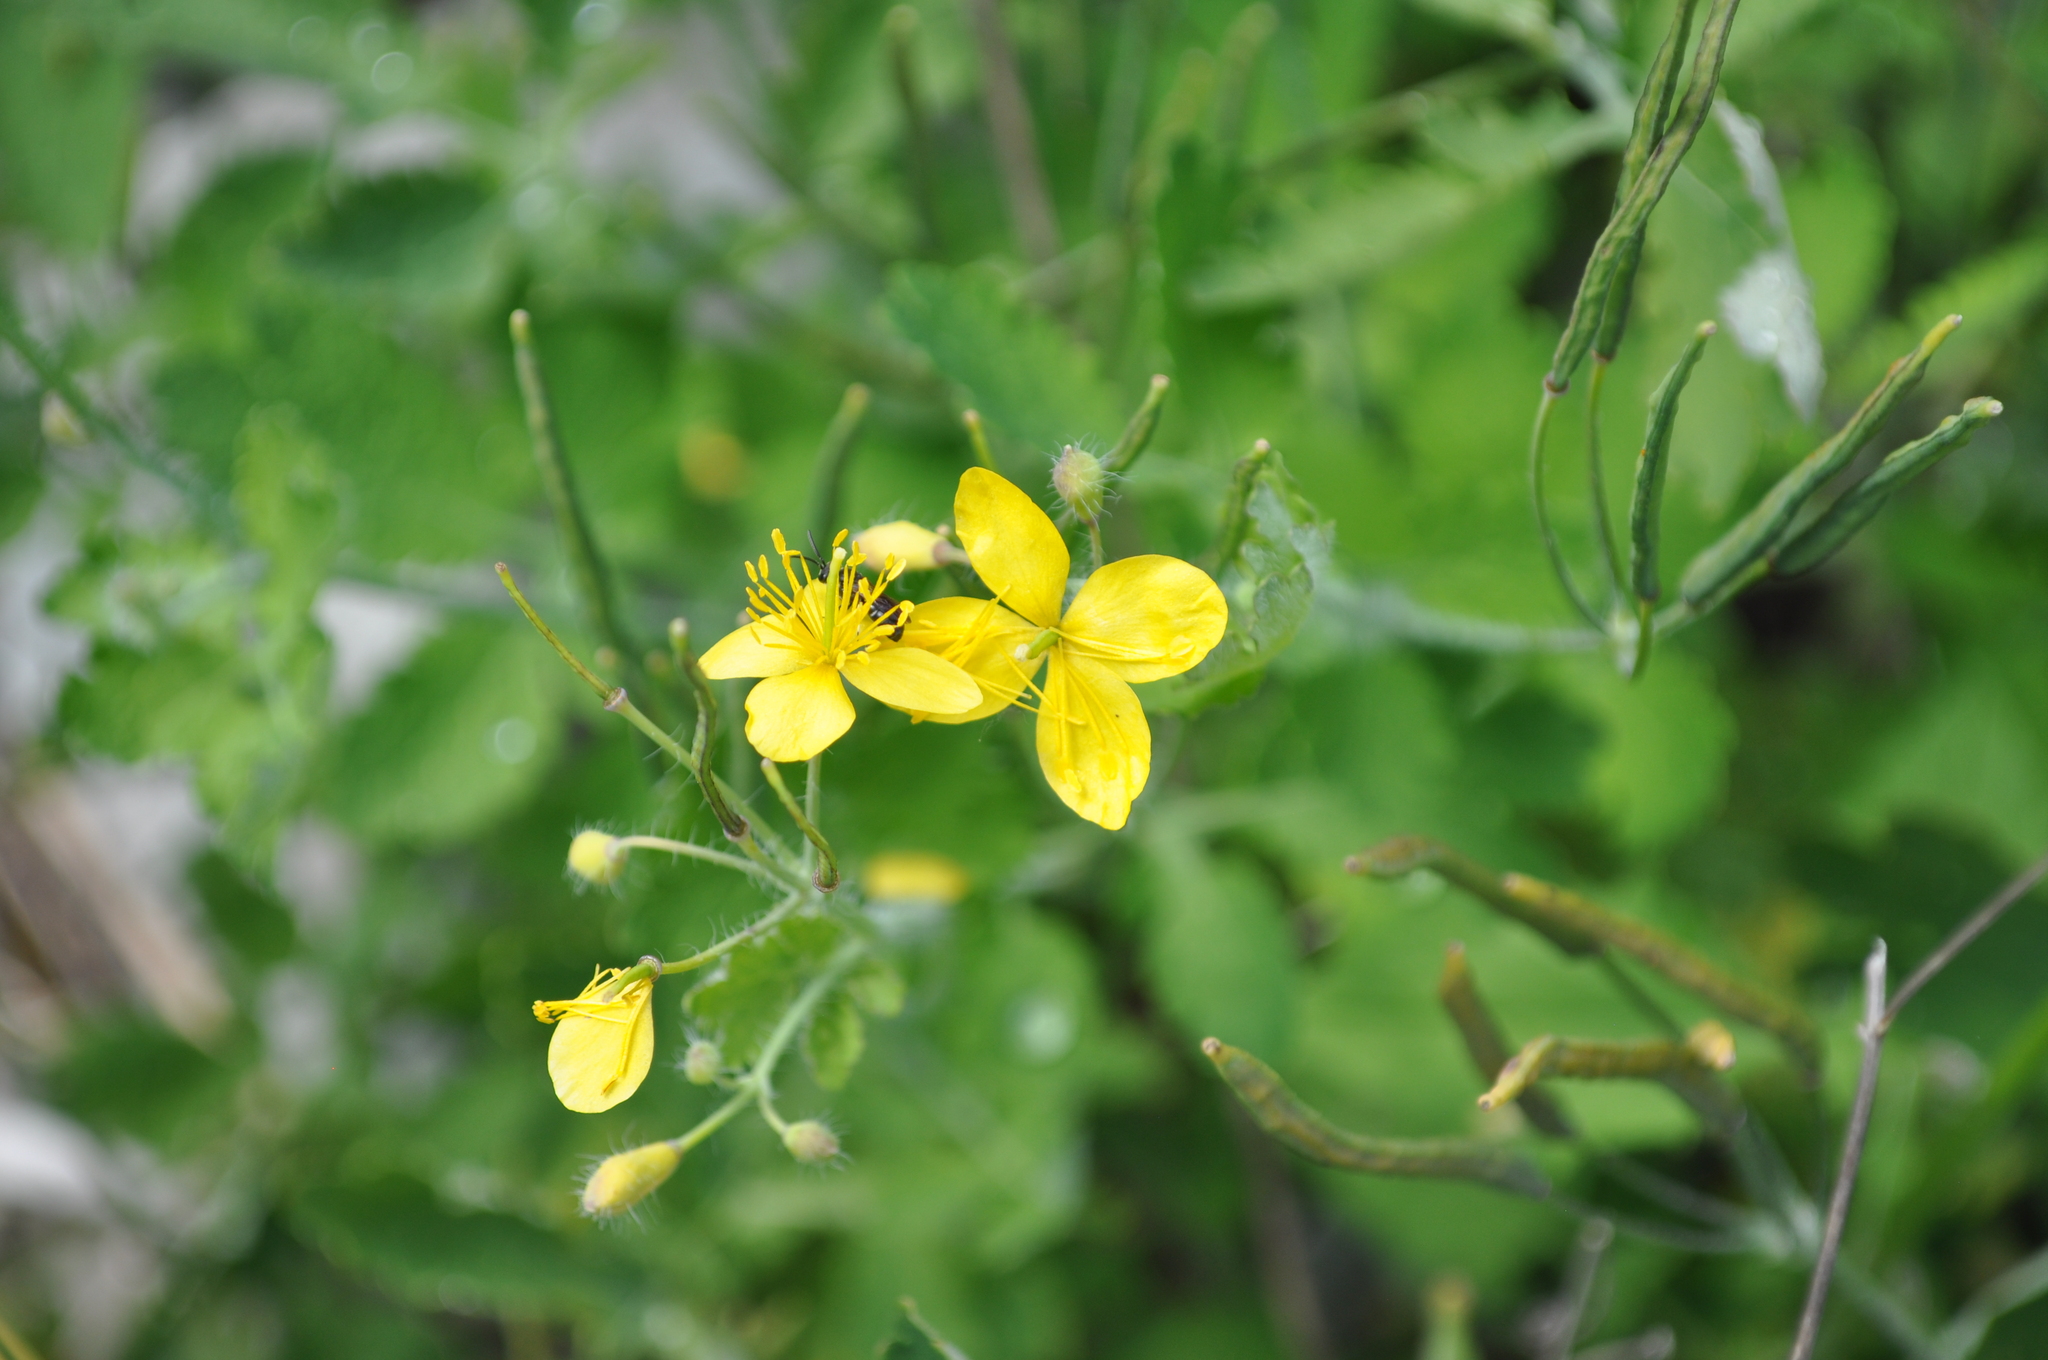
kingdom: Plantae
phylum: Tracheophyta
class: Magnoliopsida
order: Ranunculales
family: Papaveraceae
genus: Chelidonium
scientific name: Chelidonium majus
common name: Greater celandine
